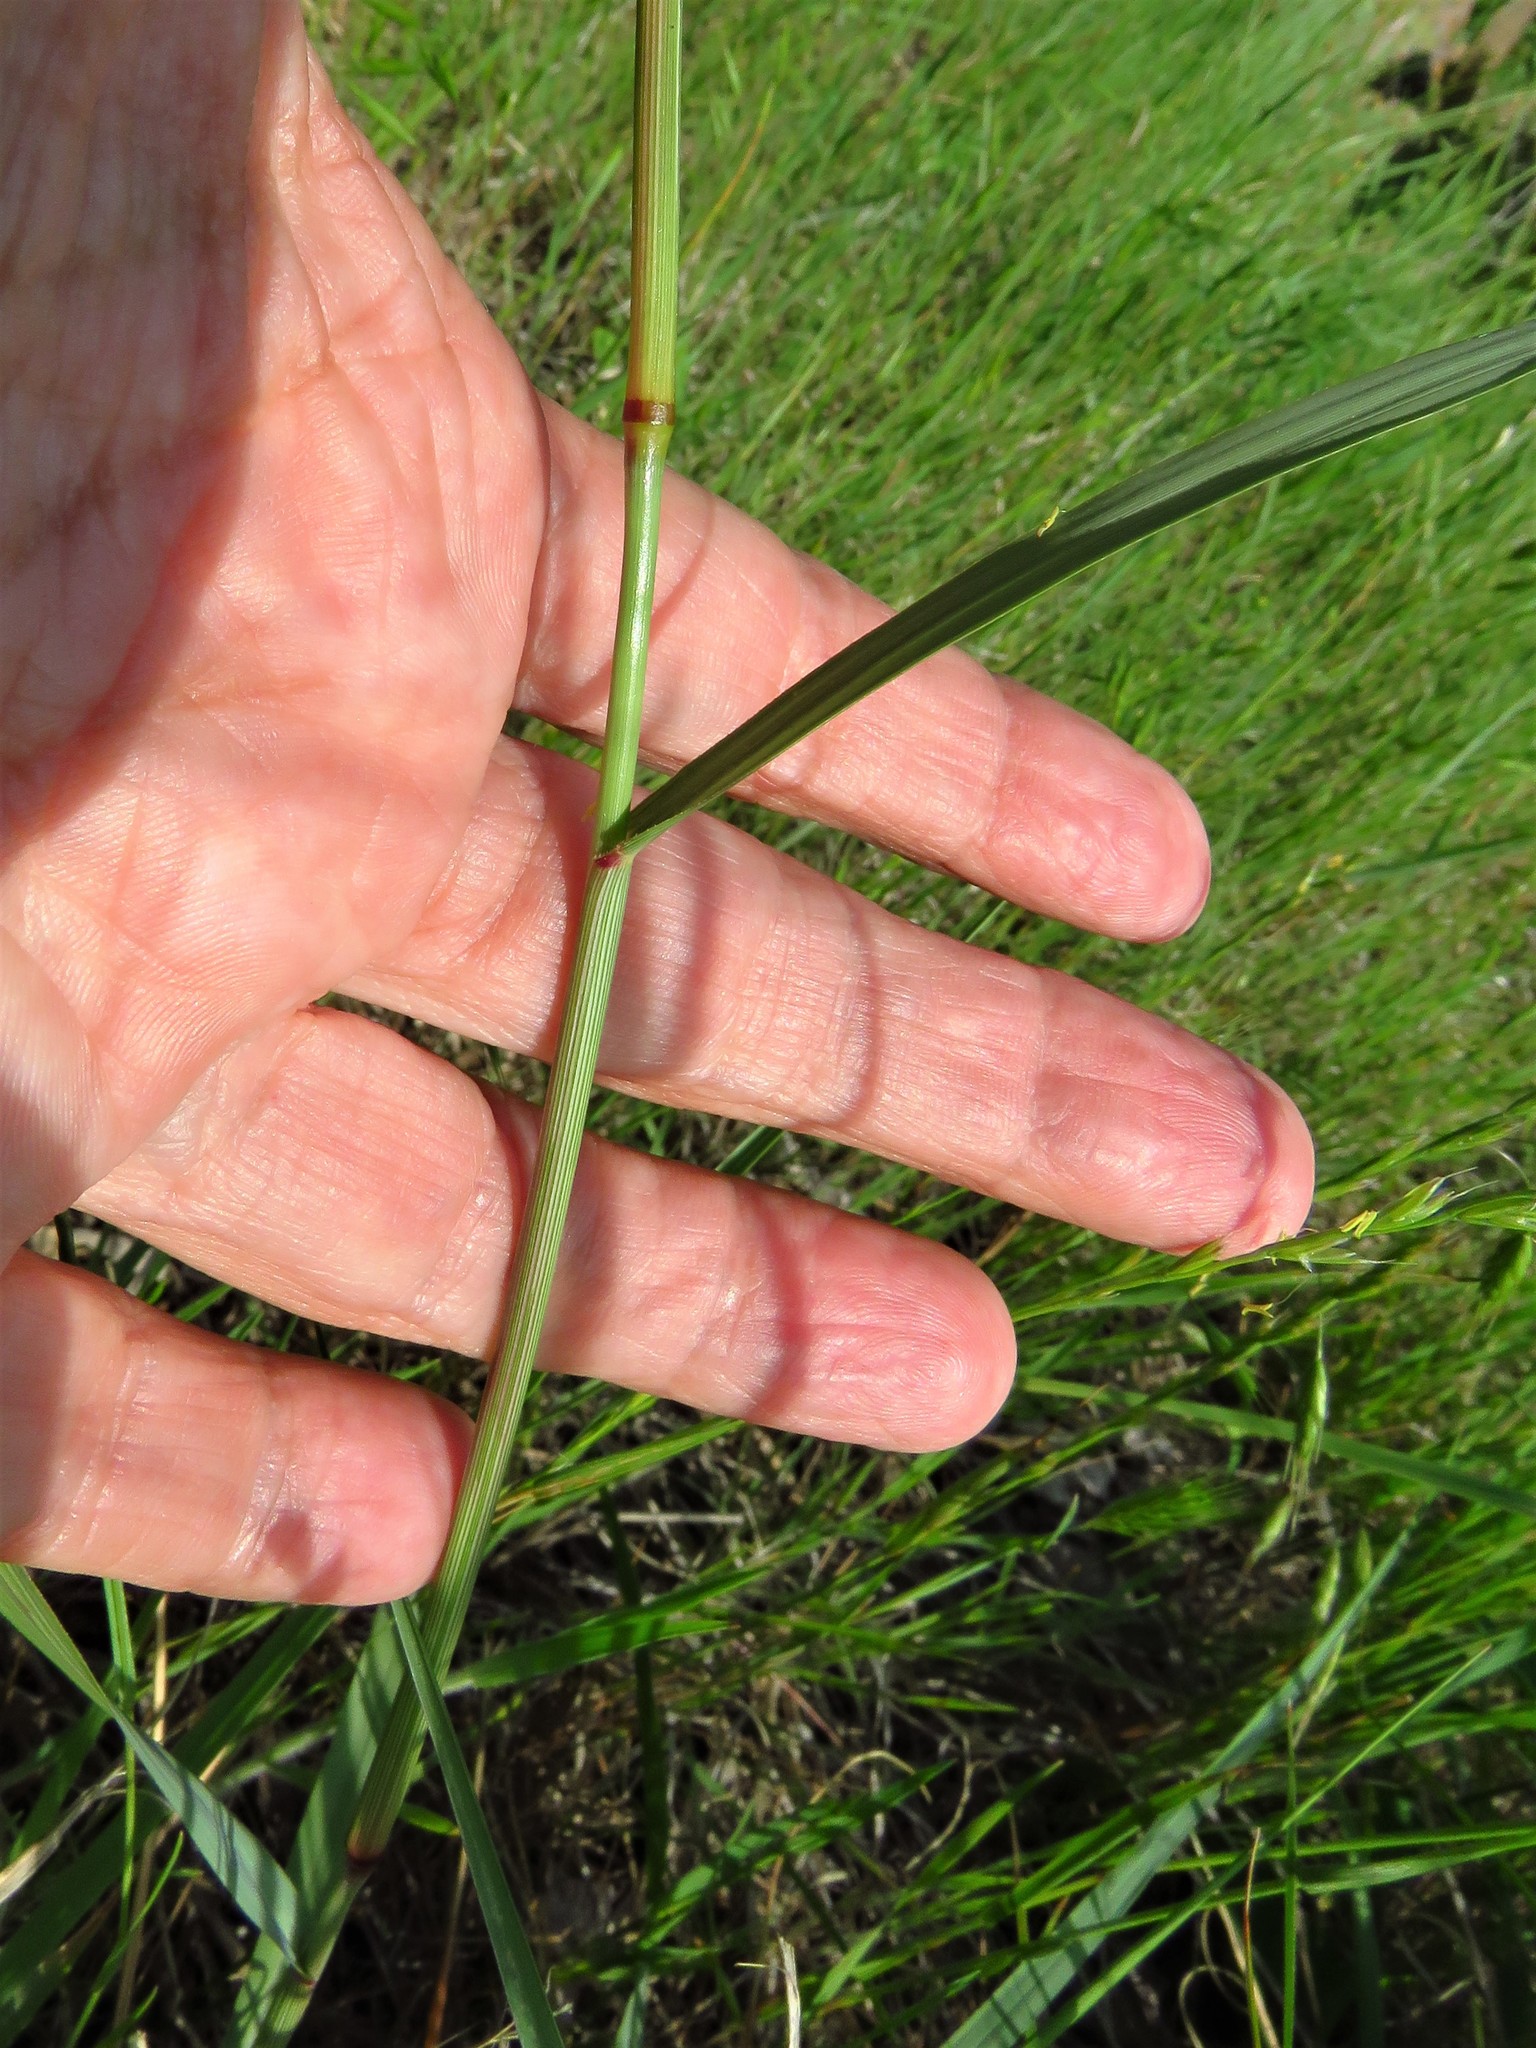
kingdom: Plantae
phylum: Tracheophyta
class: Liliopsida
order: Poales
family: Poaceae
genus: Tridens
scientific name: Tridens albescens
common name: White tridens
